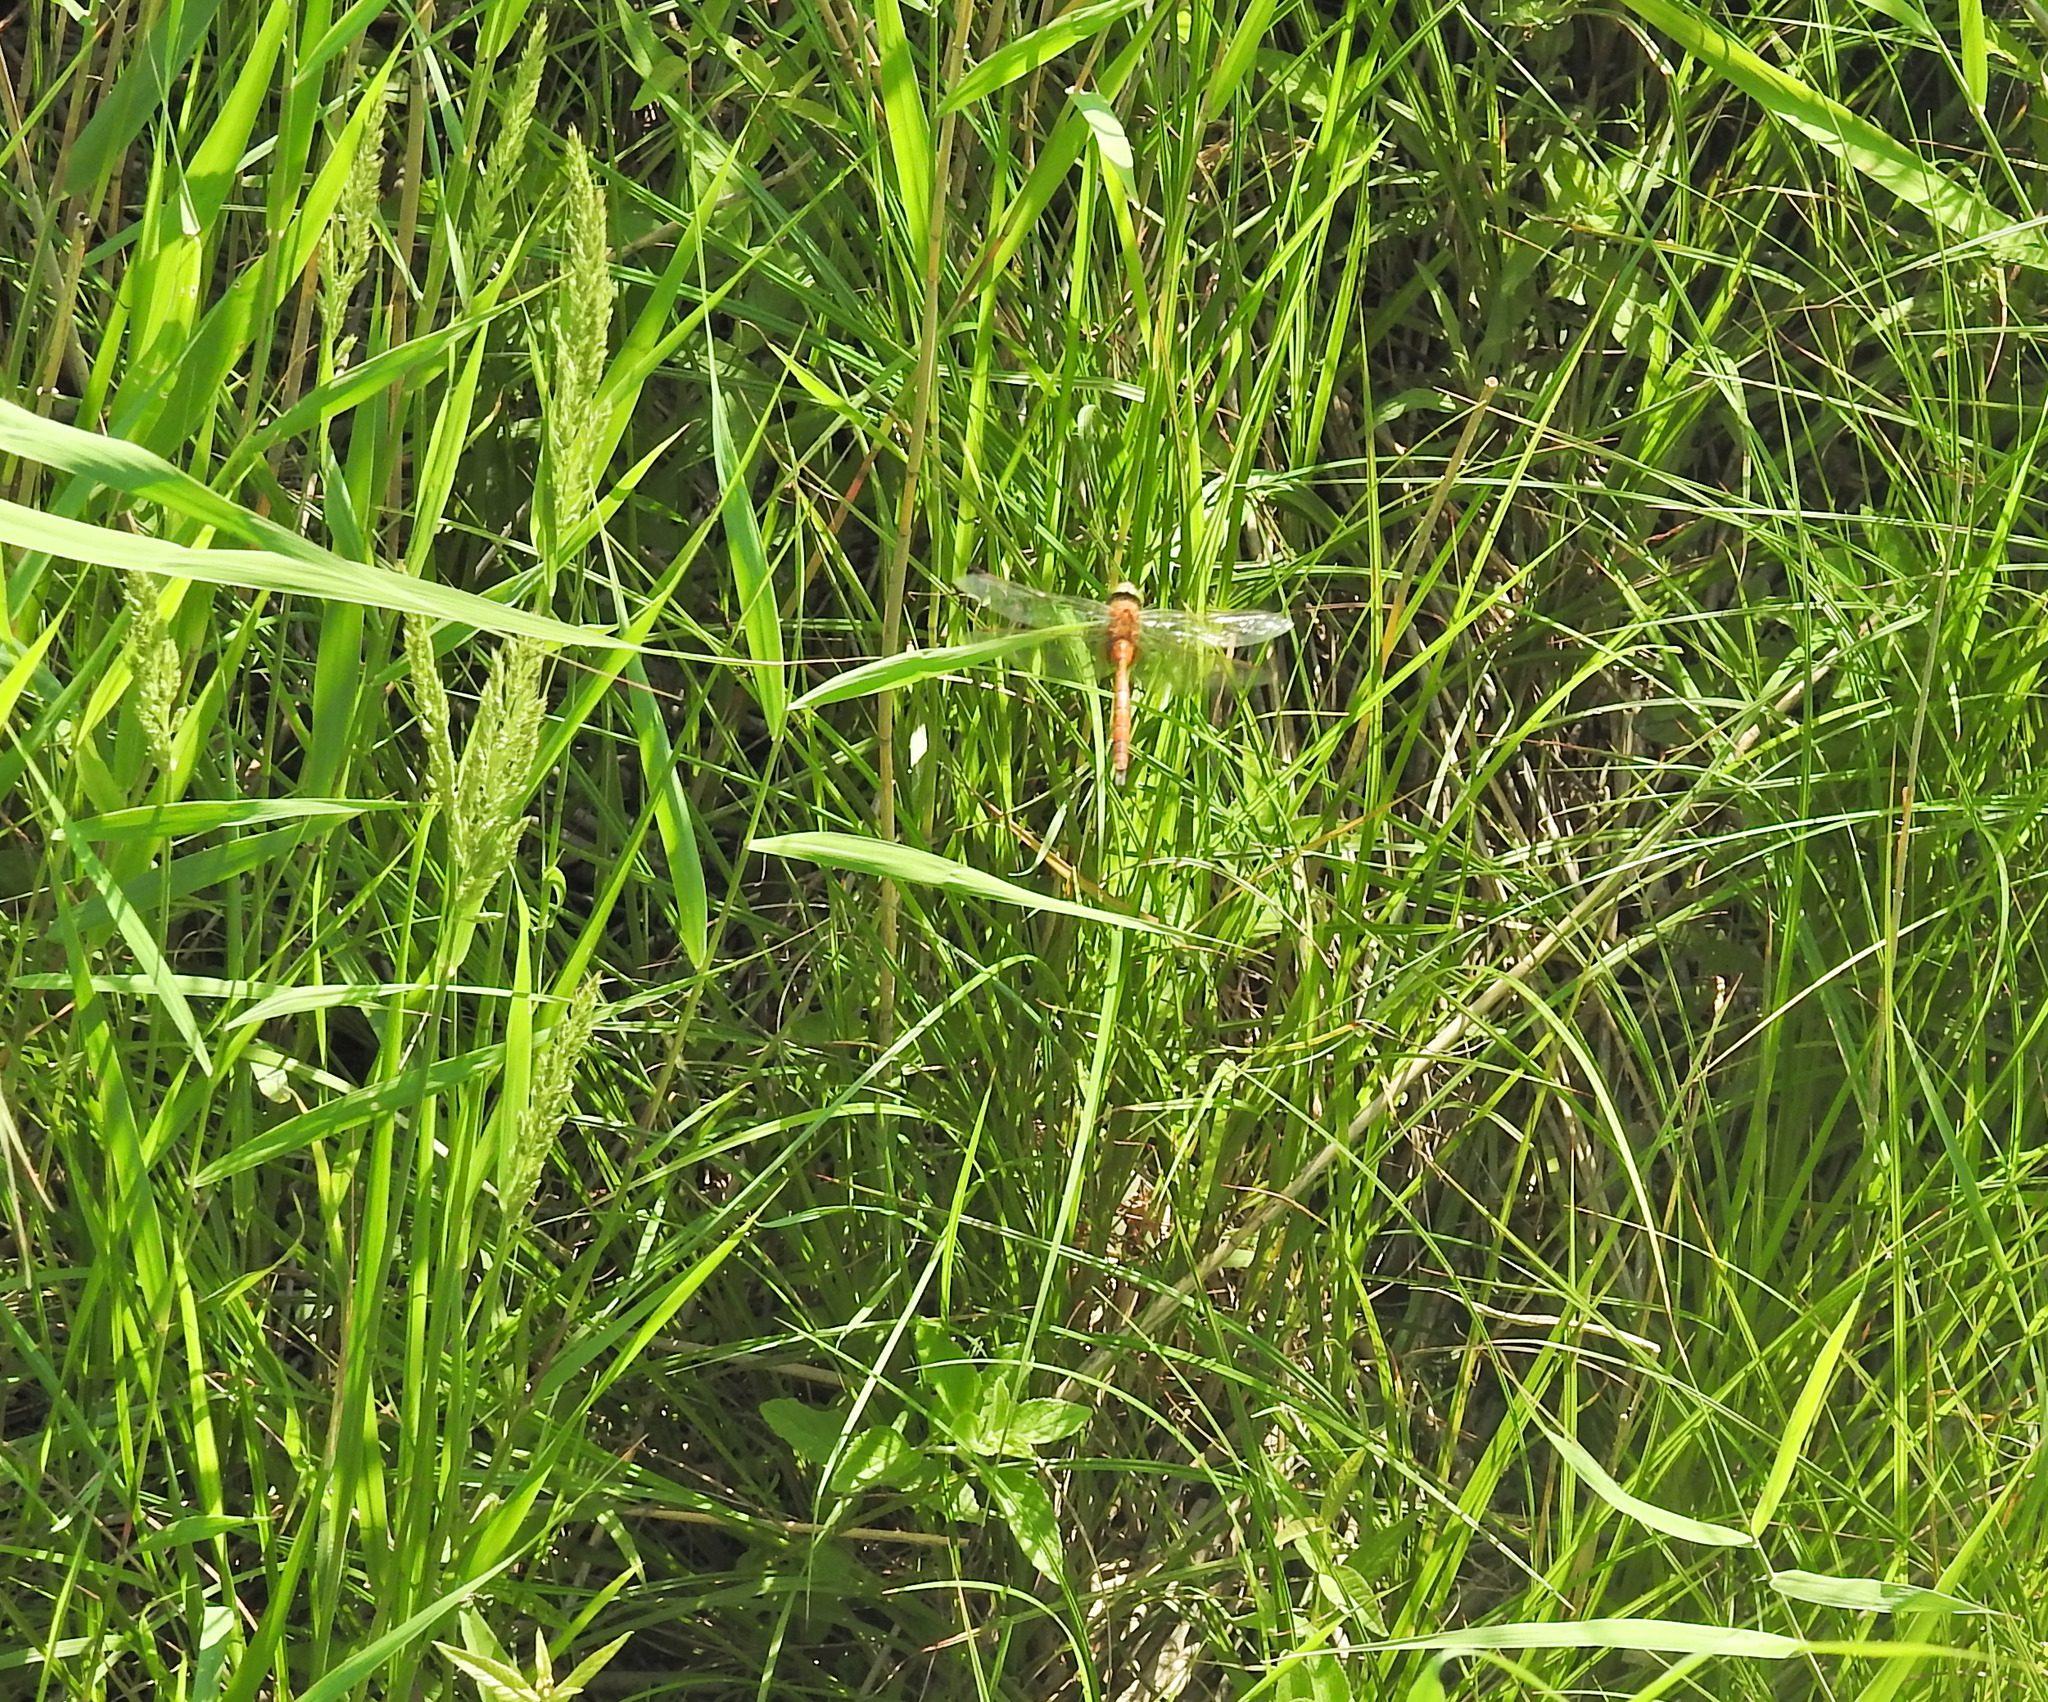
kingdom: Animalia
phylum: Arthropoda
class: Insecta
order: Odonata
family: Aeshnidae
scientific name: Aeshnidae
